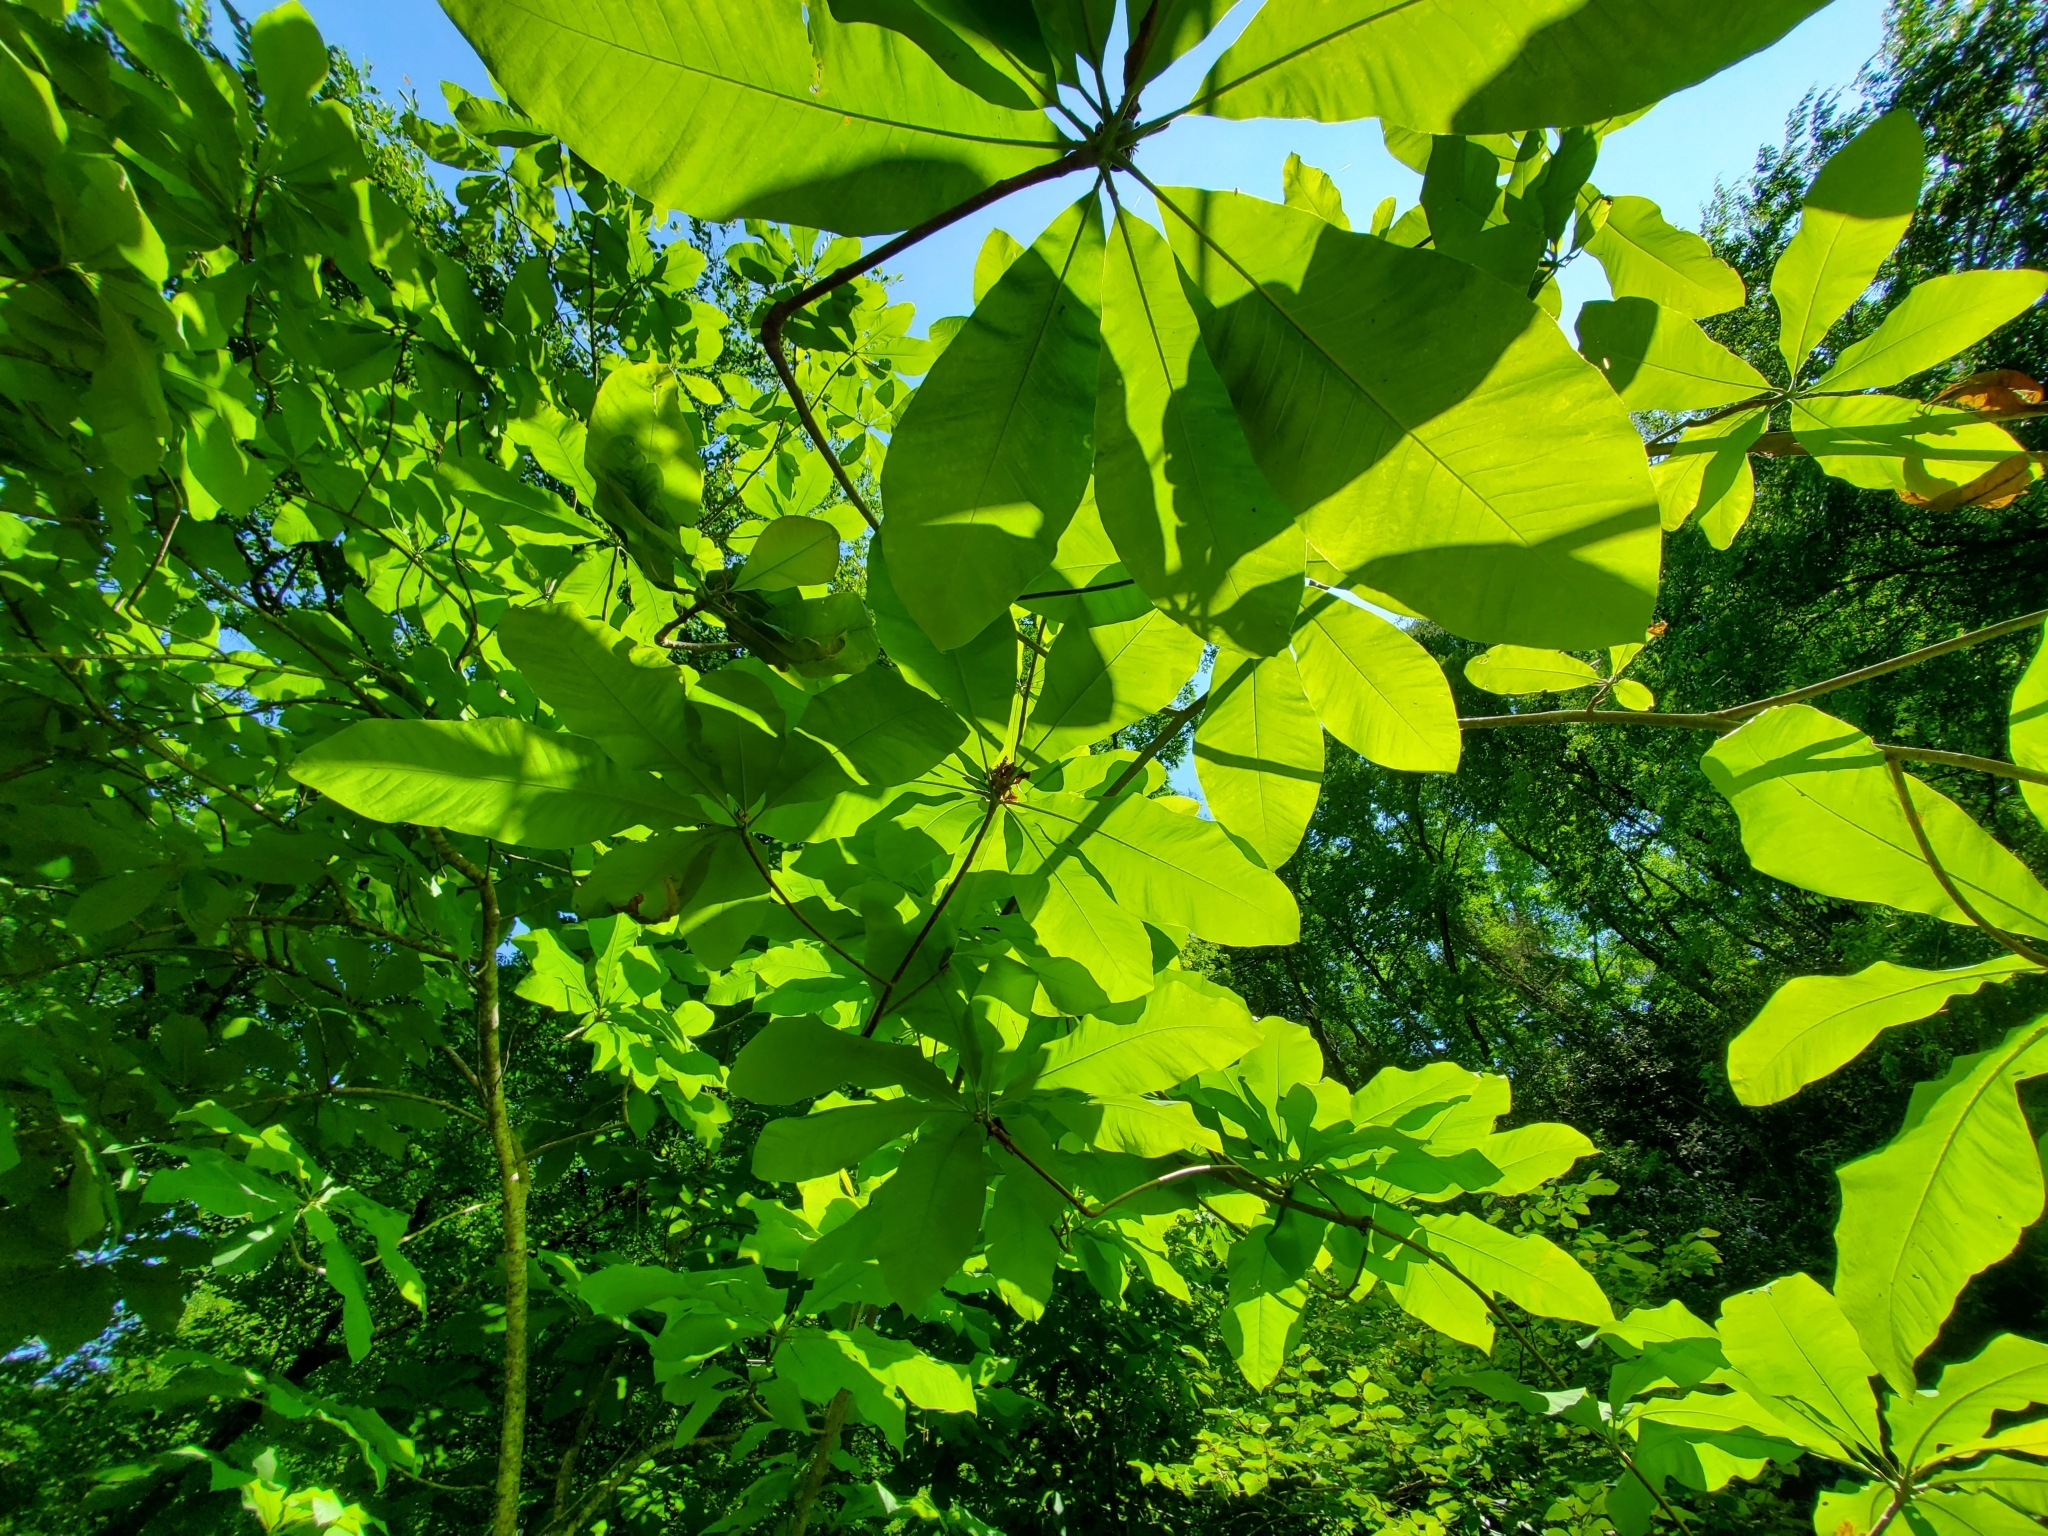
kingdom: Plantae
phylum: Tracheophyta
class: Magnoliopsida
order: Magnoliales
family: Magnoliaceae
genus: Magnolia
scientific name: Magnolia tripetala
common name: Umbrella magnolia
